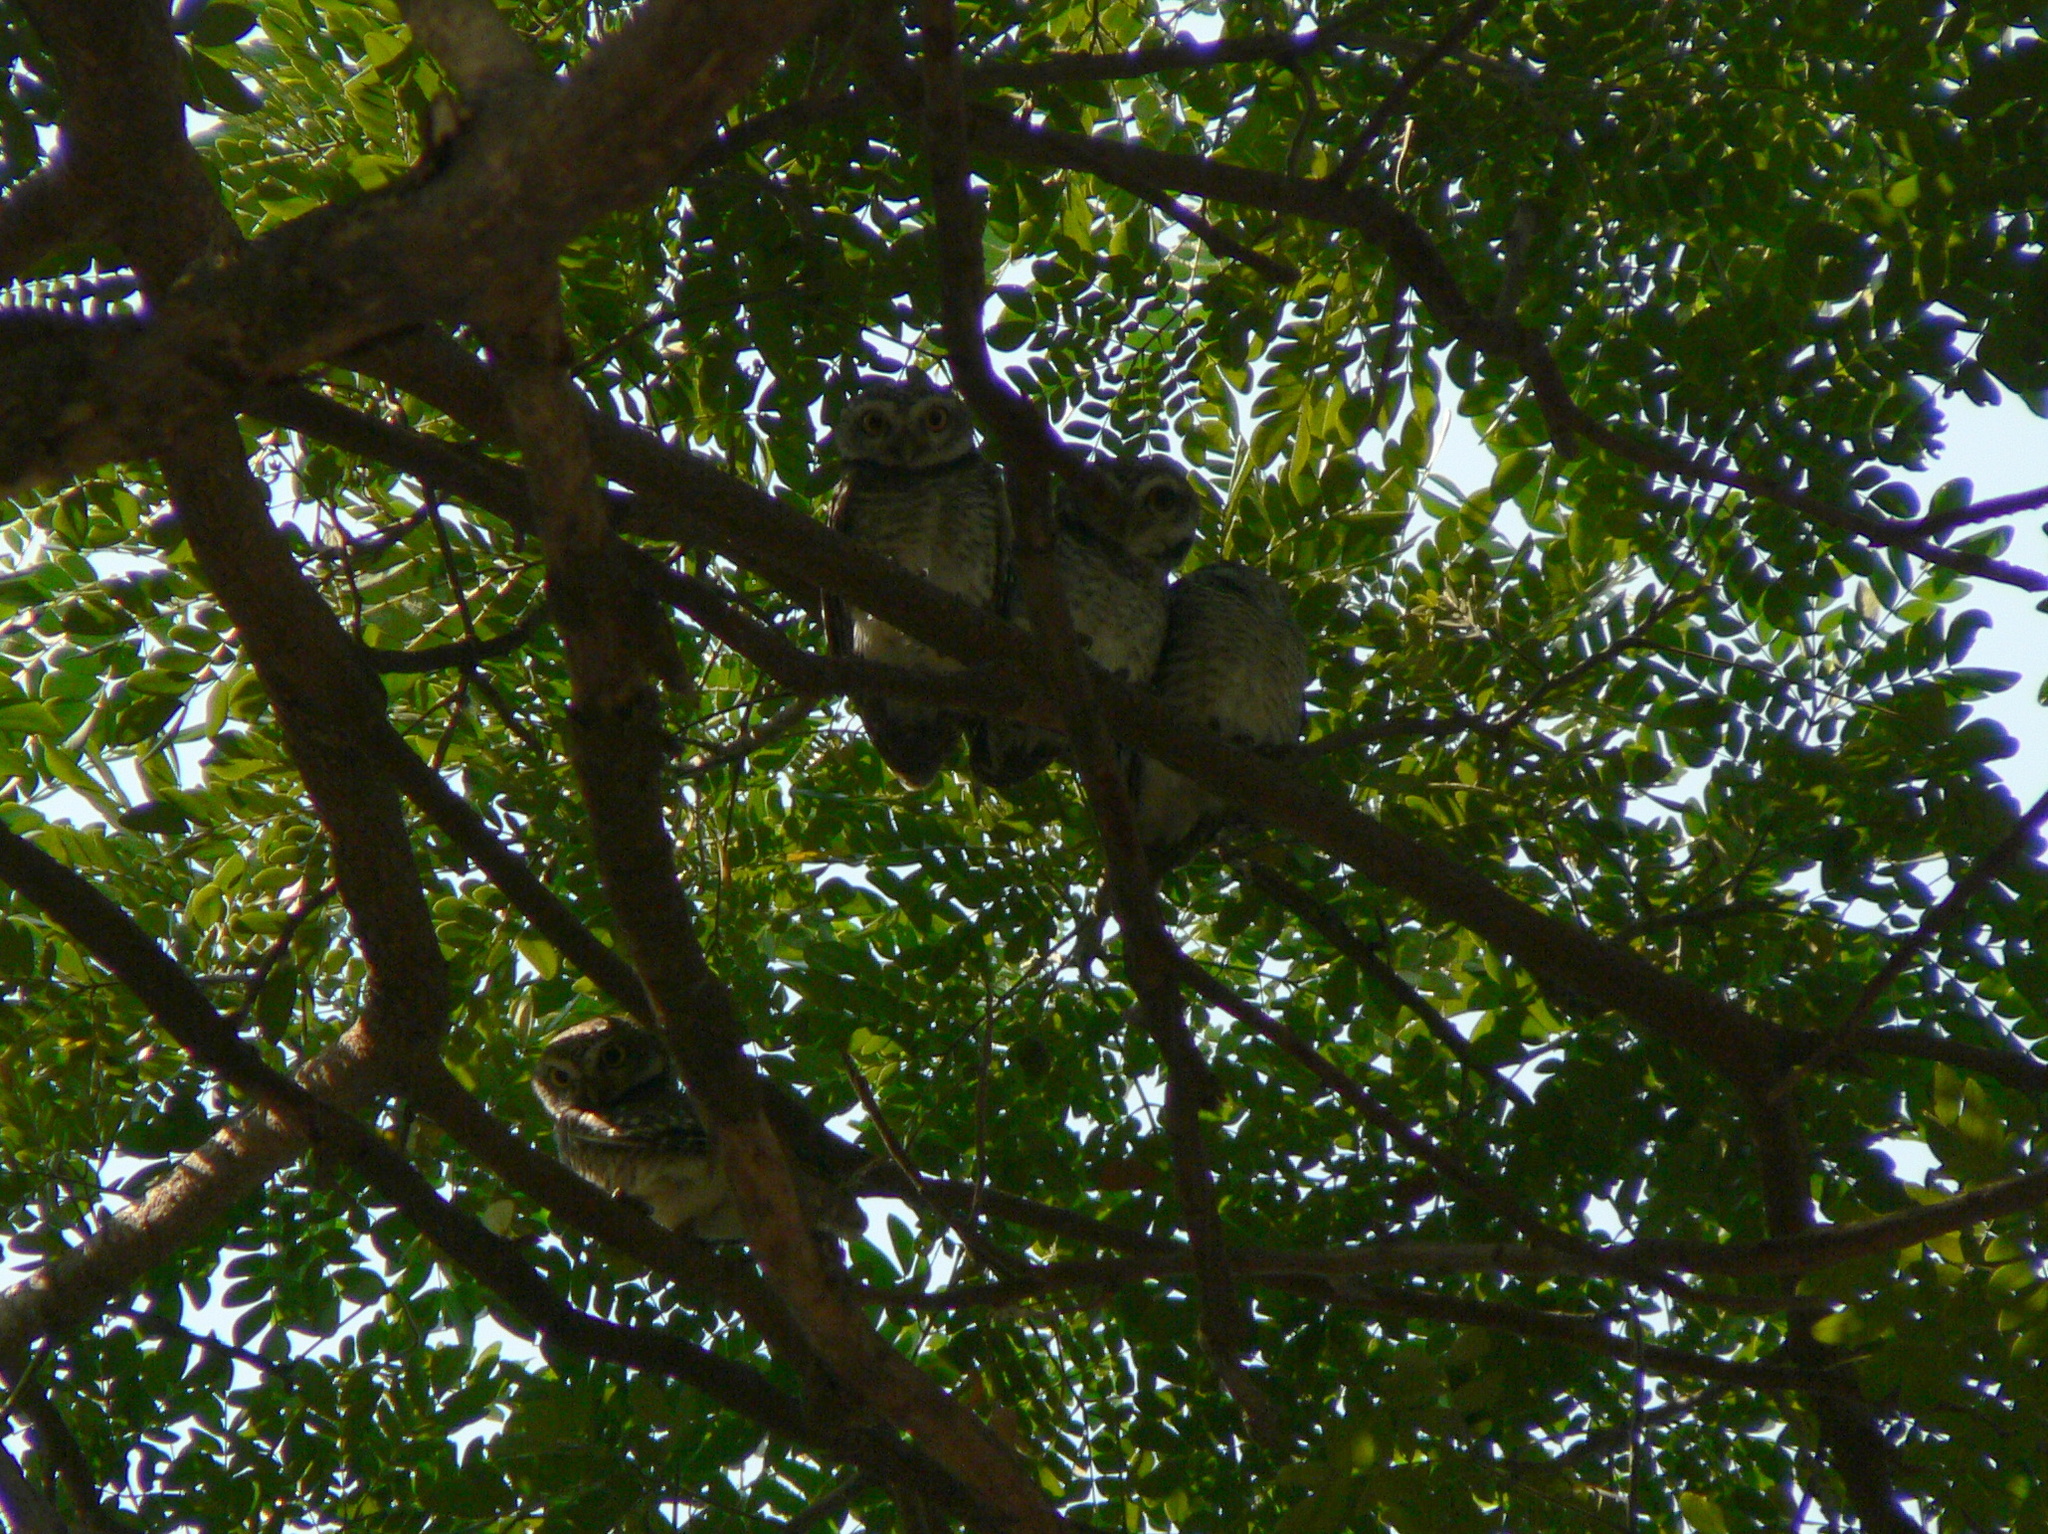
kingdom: Animalia
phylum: Chordata
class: Aves
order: Strigiformes
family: Strigidae
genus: Athene
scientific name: Athene brama
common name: Spotted owlet
